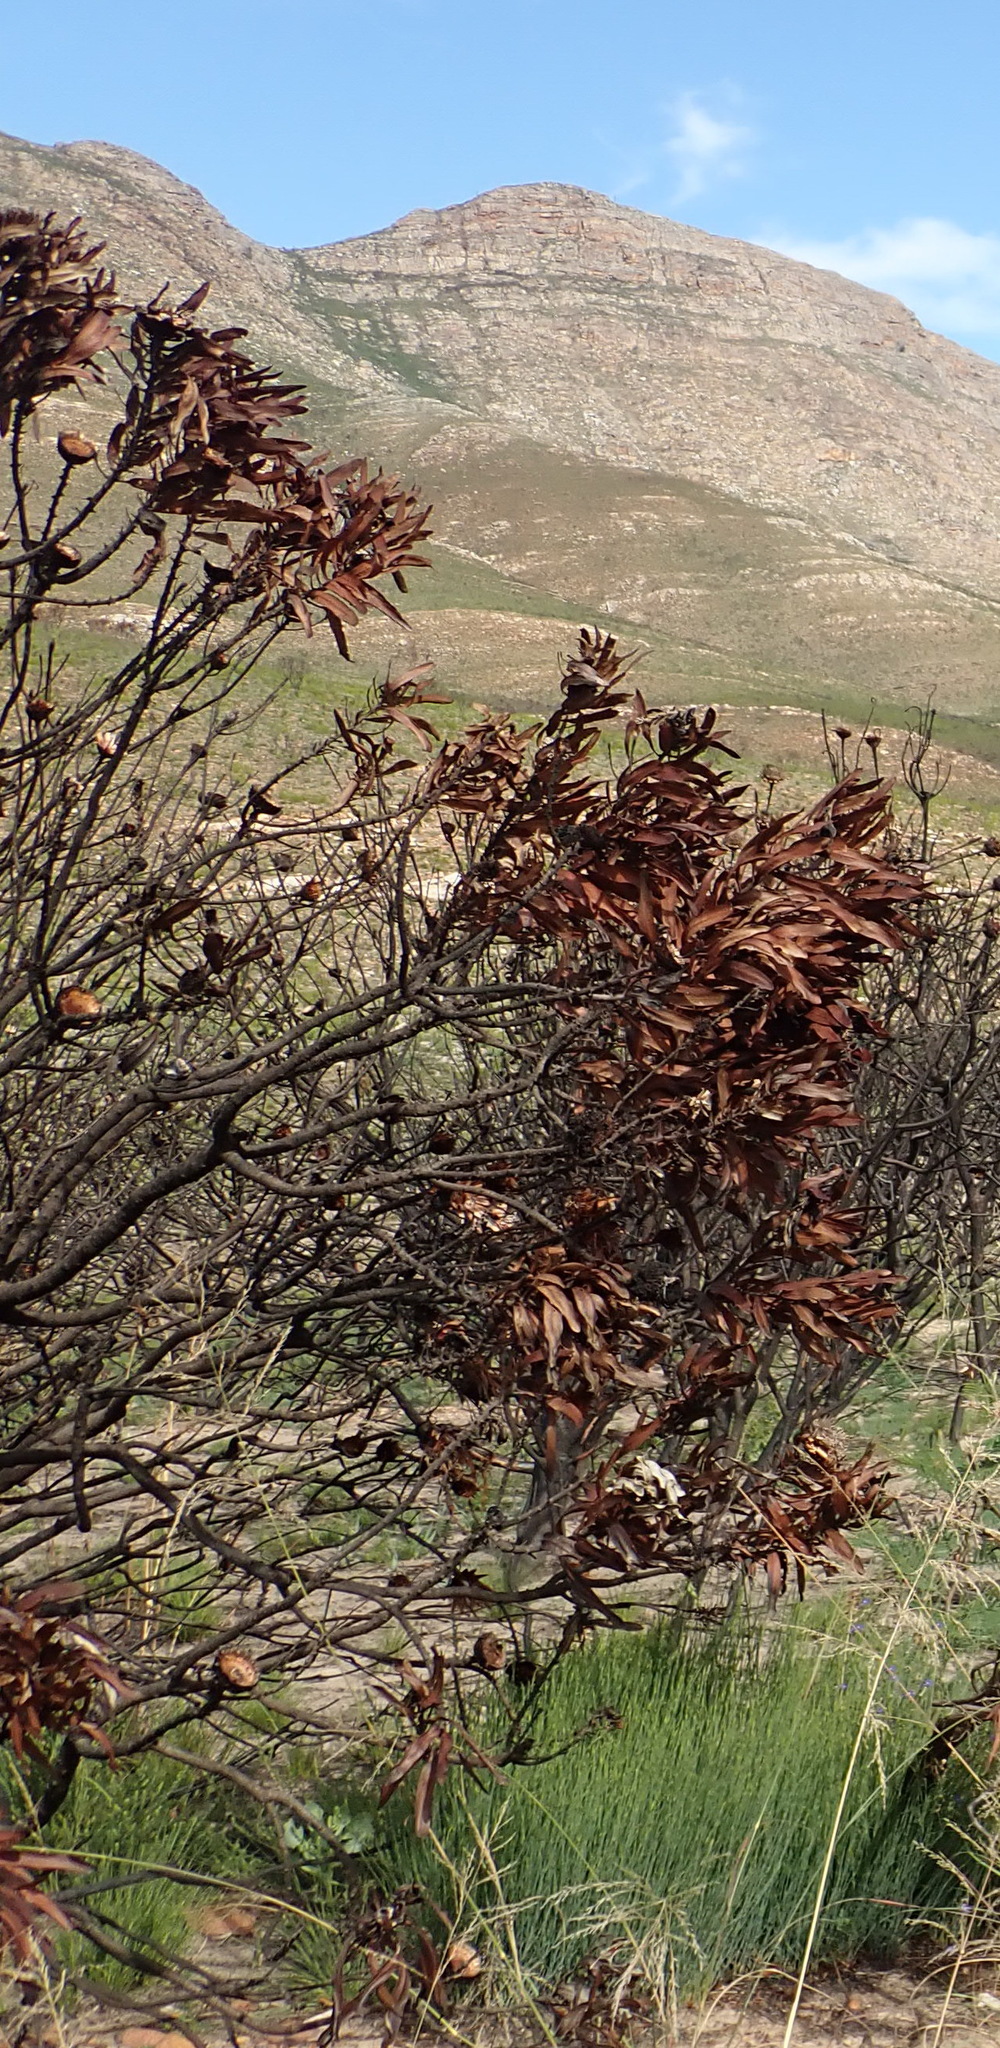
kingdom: Plantae
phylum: Tracheophyta
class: Magnoliopsida
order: Proteales
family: Proteaceae
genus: Protea
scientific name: Protea neriifolia
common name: Blue sugarbush
